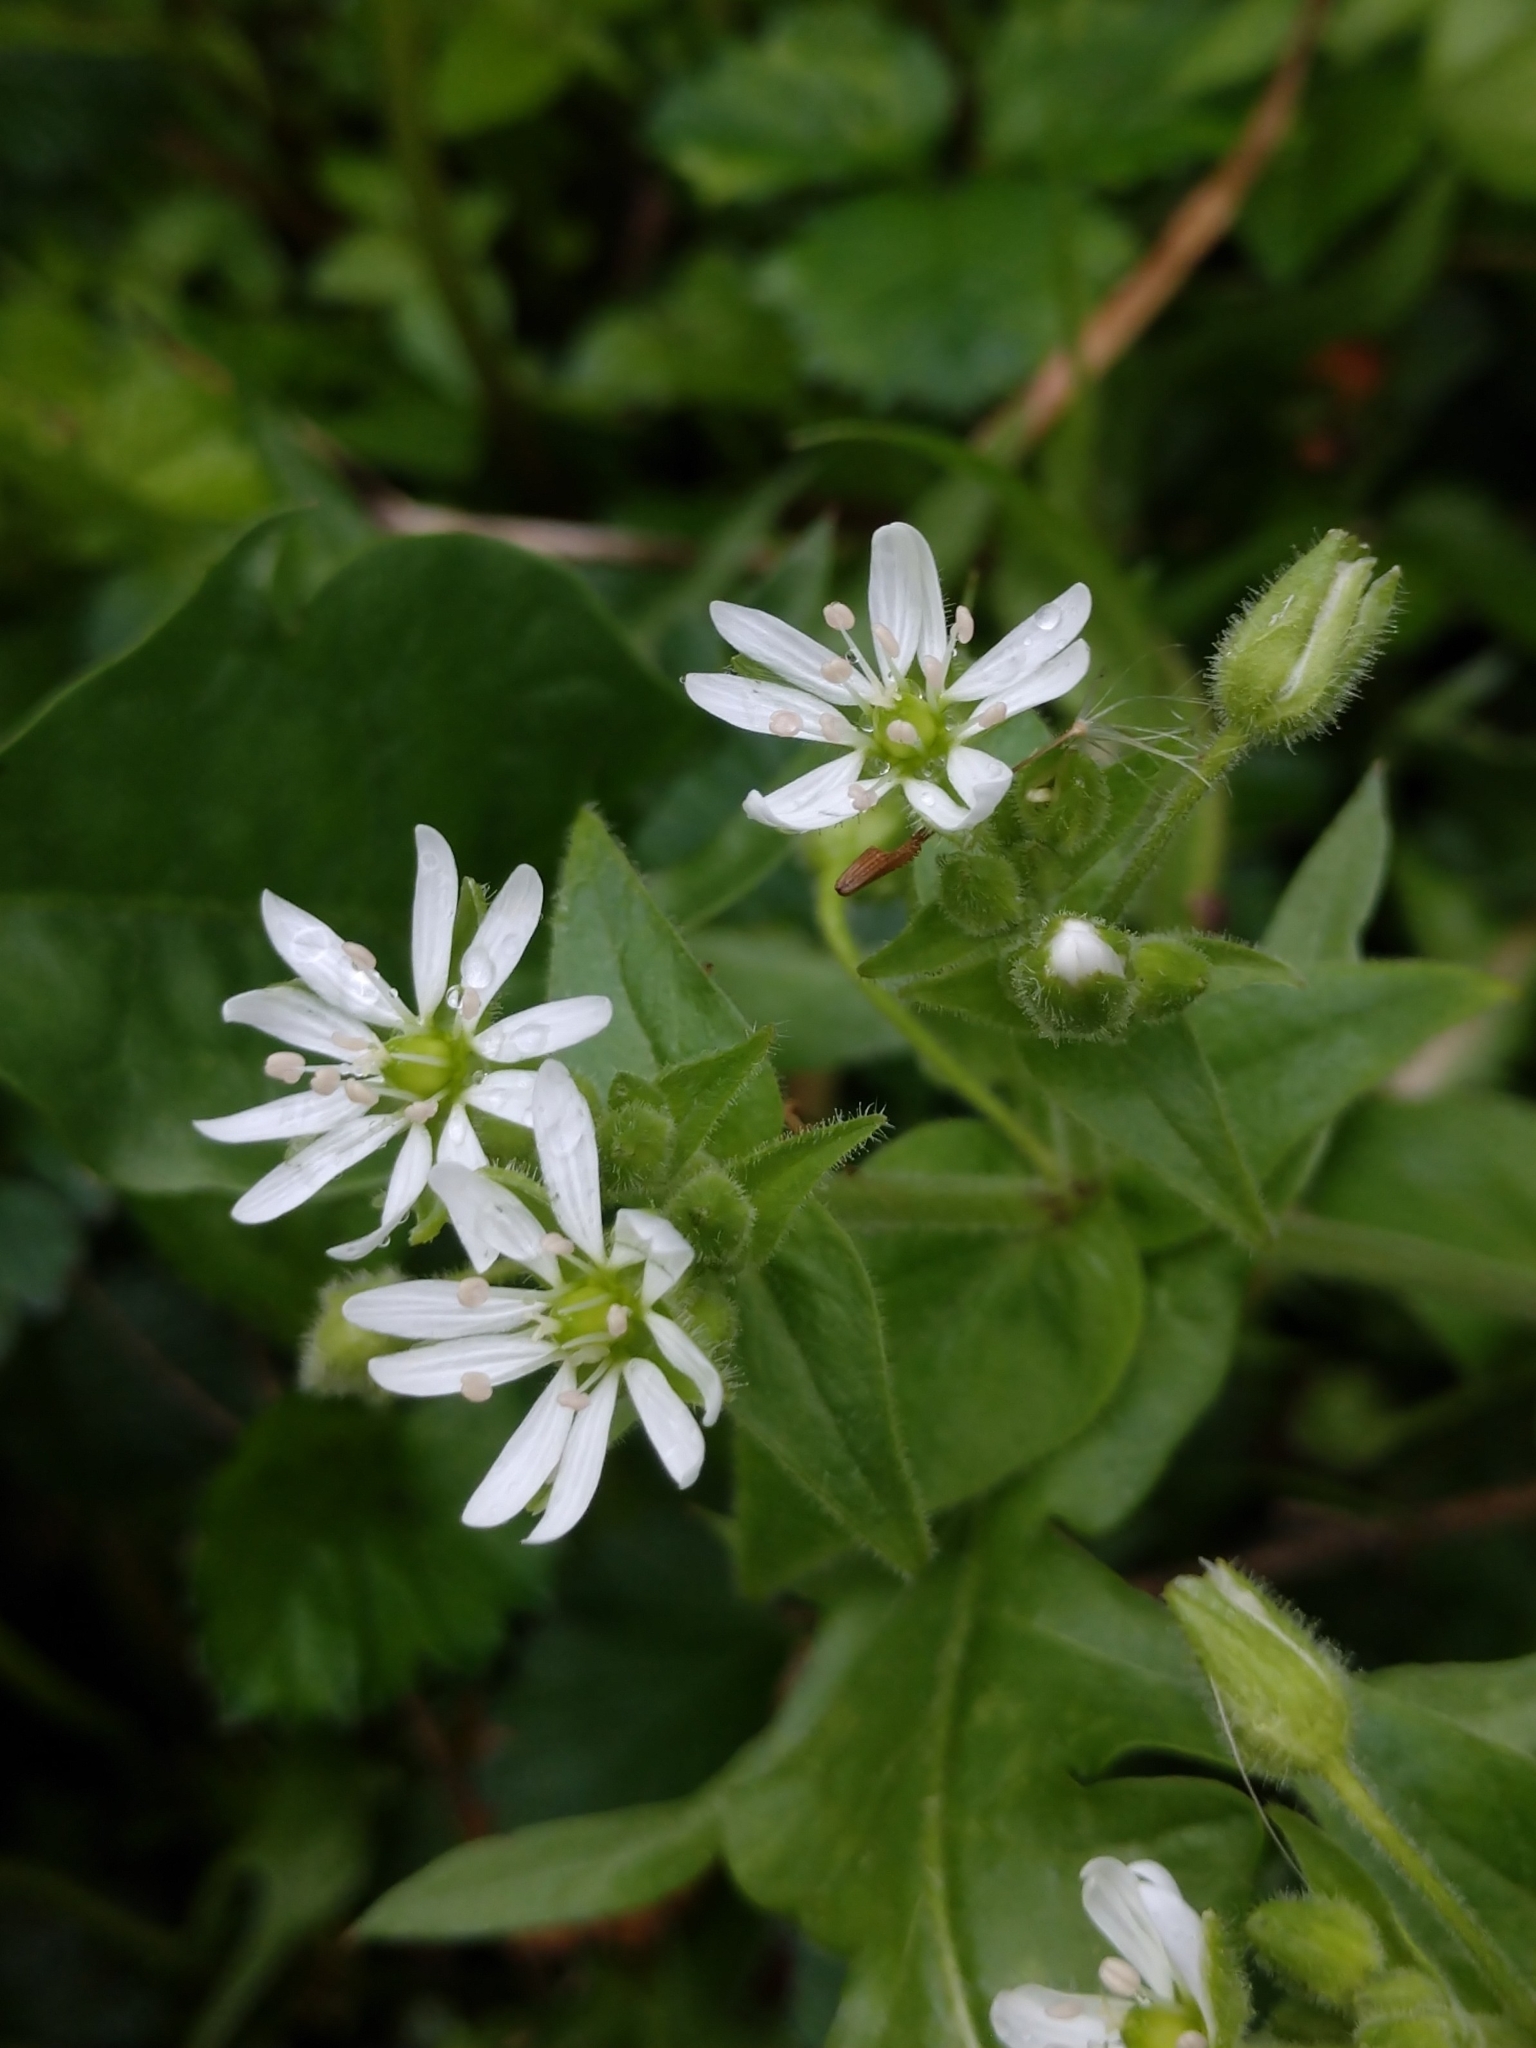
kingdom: Plantae
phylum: Tracheophyta
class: Magnoliopsida
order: Caryophyllales
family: Caryophyllaceae
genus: Stellaria
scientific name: Stellaria aquatica
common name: Water chickweed
